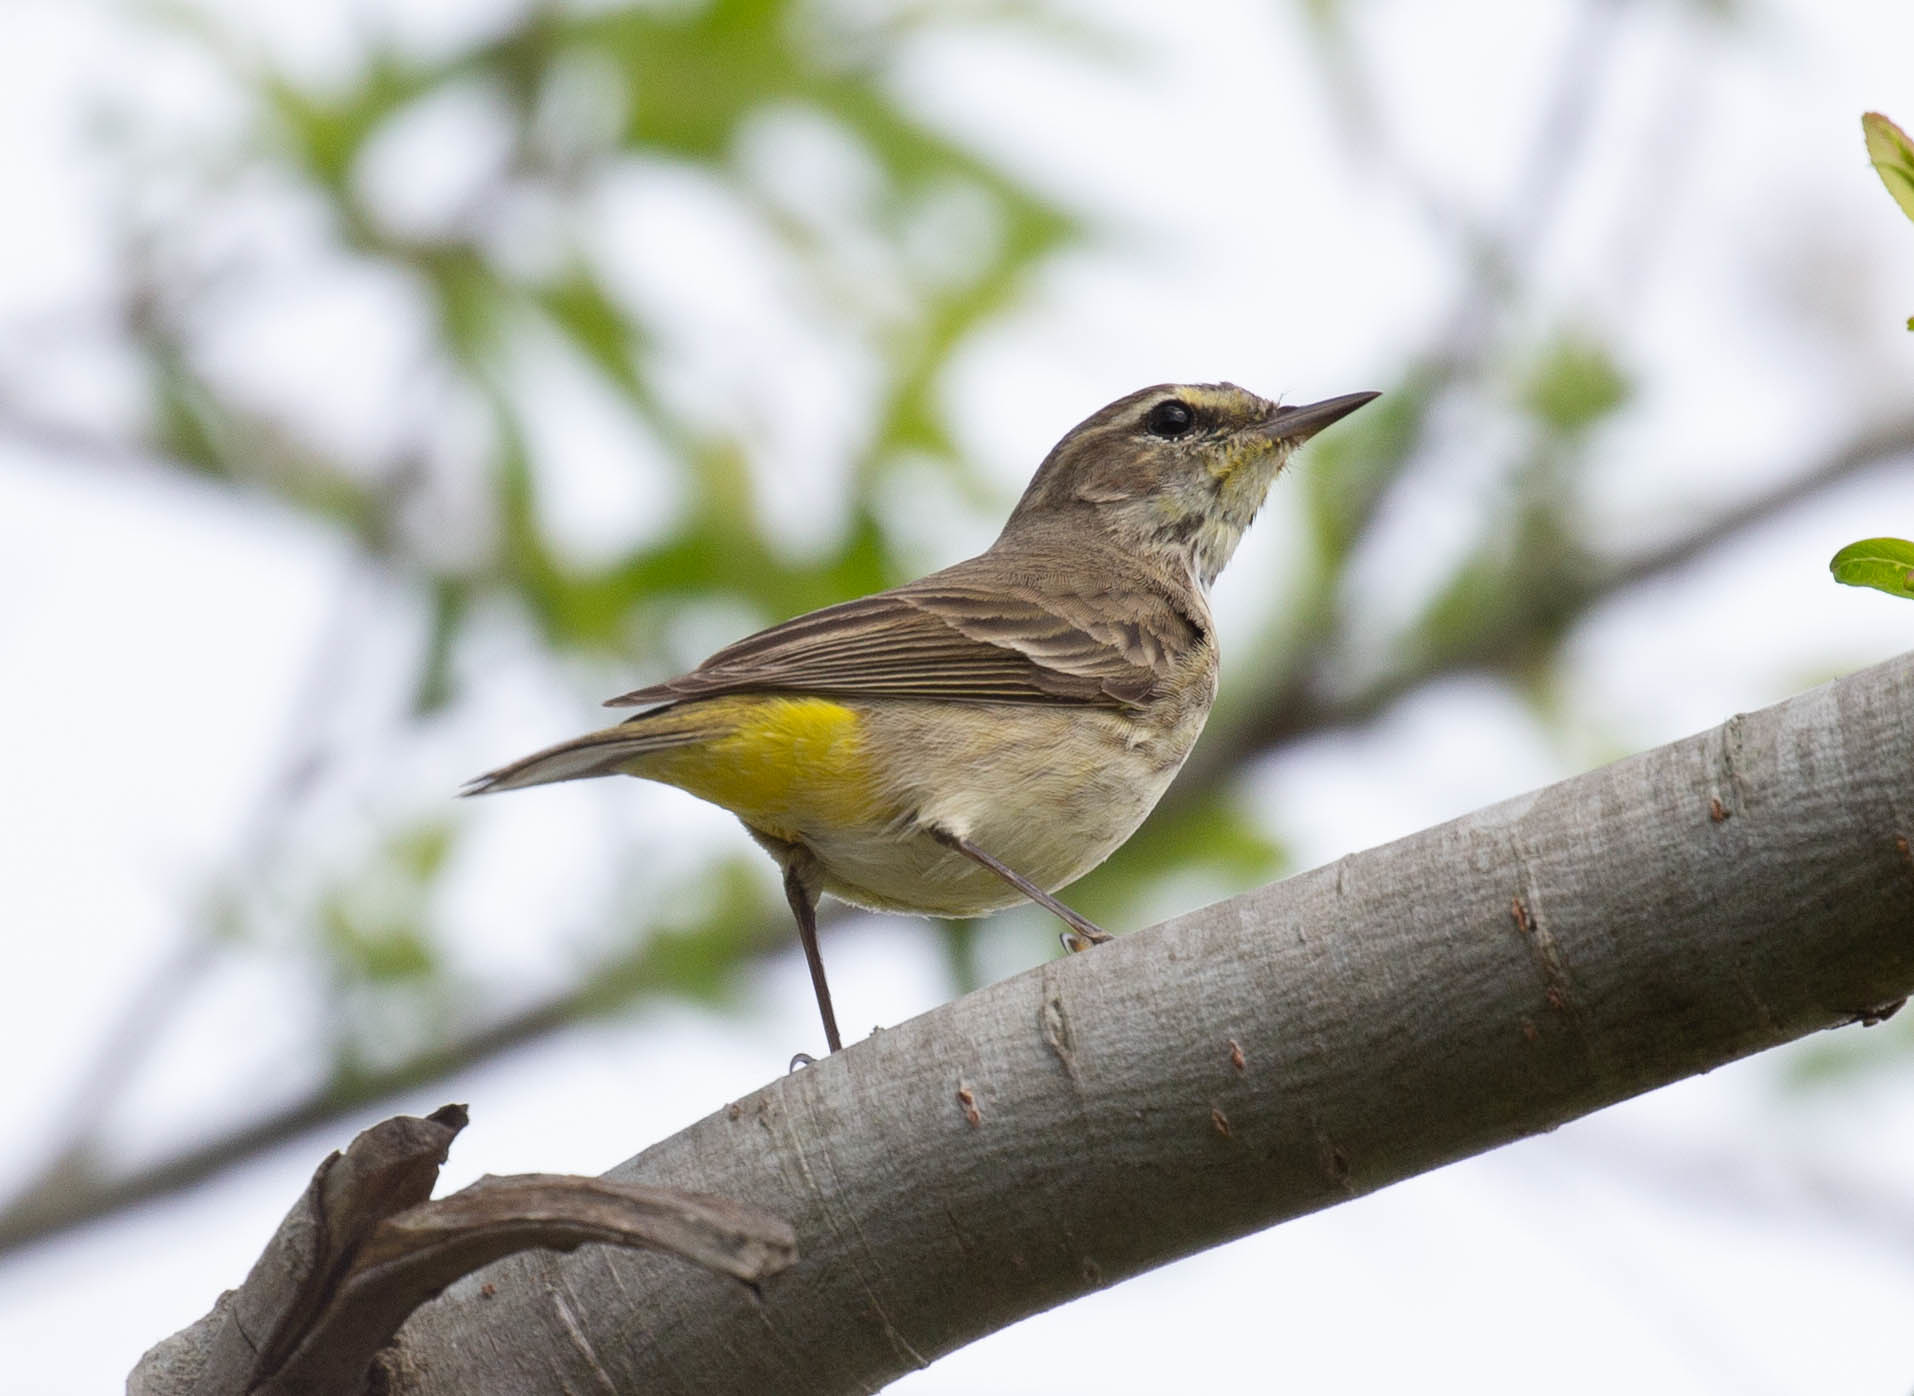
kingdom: Animalia
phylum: Chordata
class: Aves
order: Passeriformes
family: Parulidae
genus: Setophaga
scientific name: Setophaga palmarum
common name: Palm warbler
